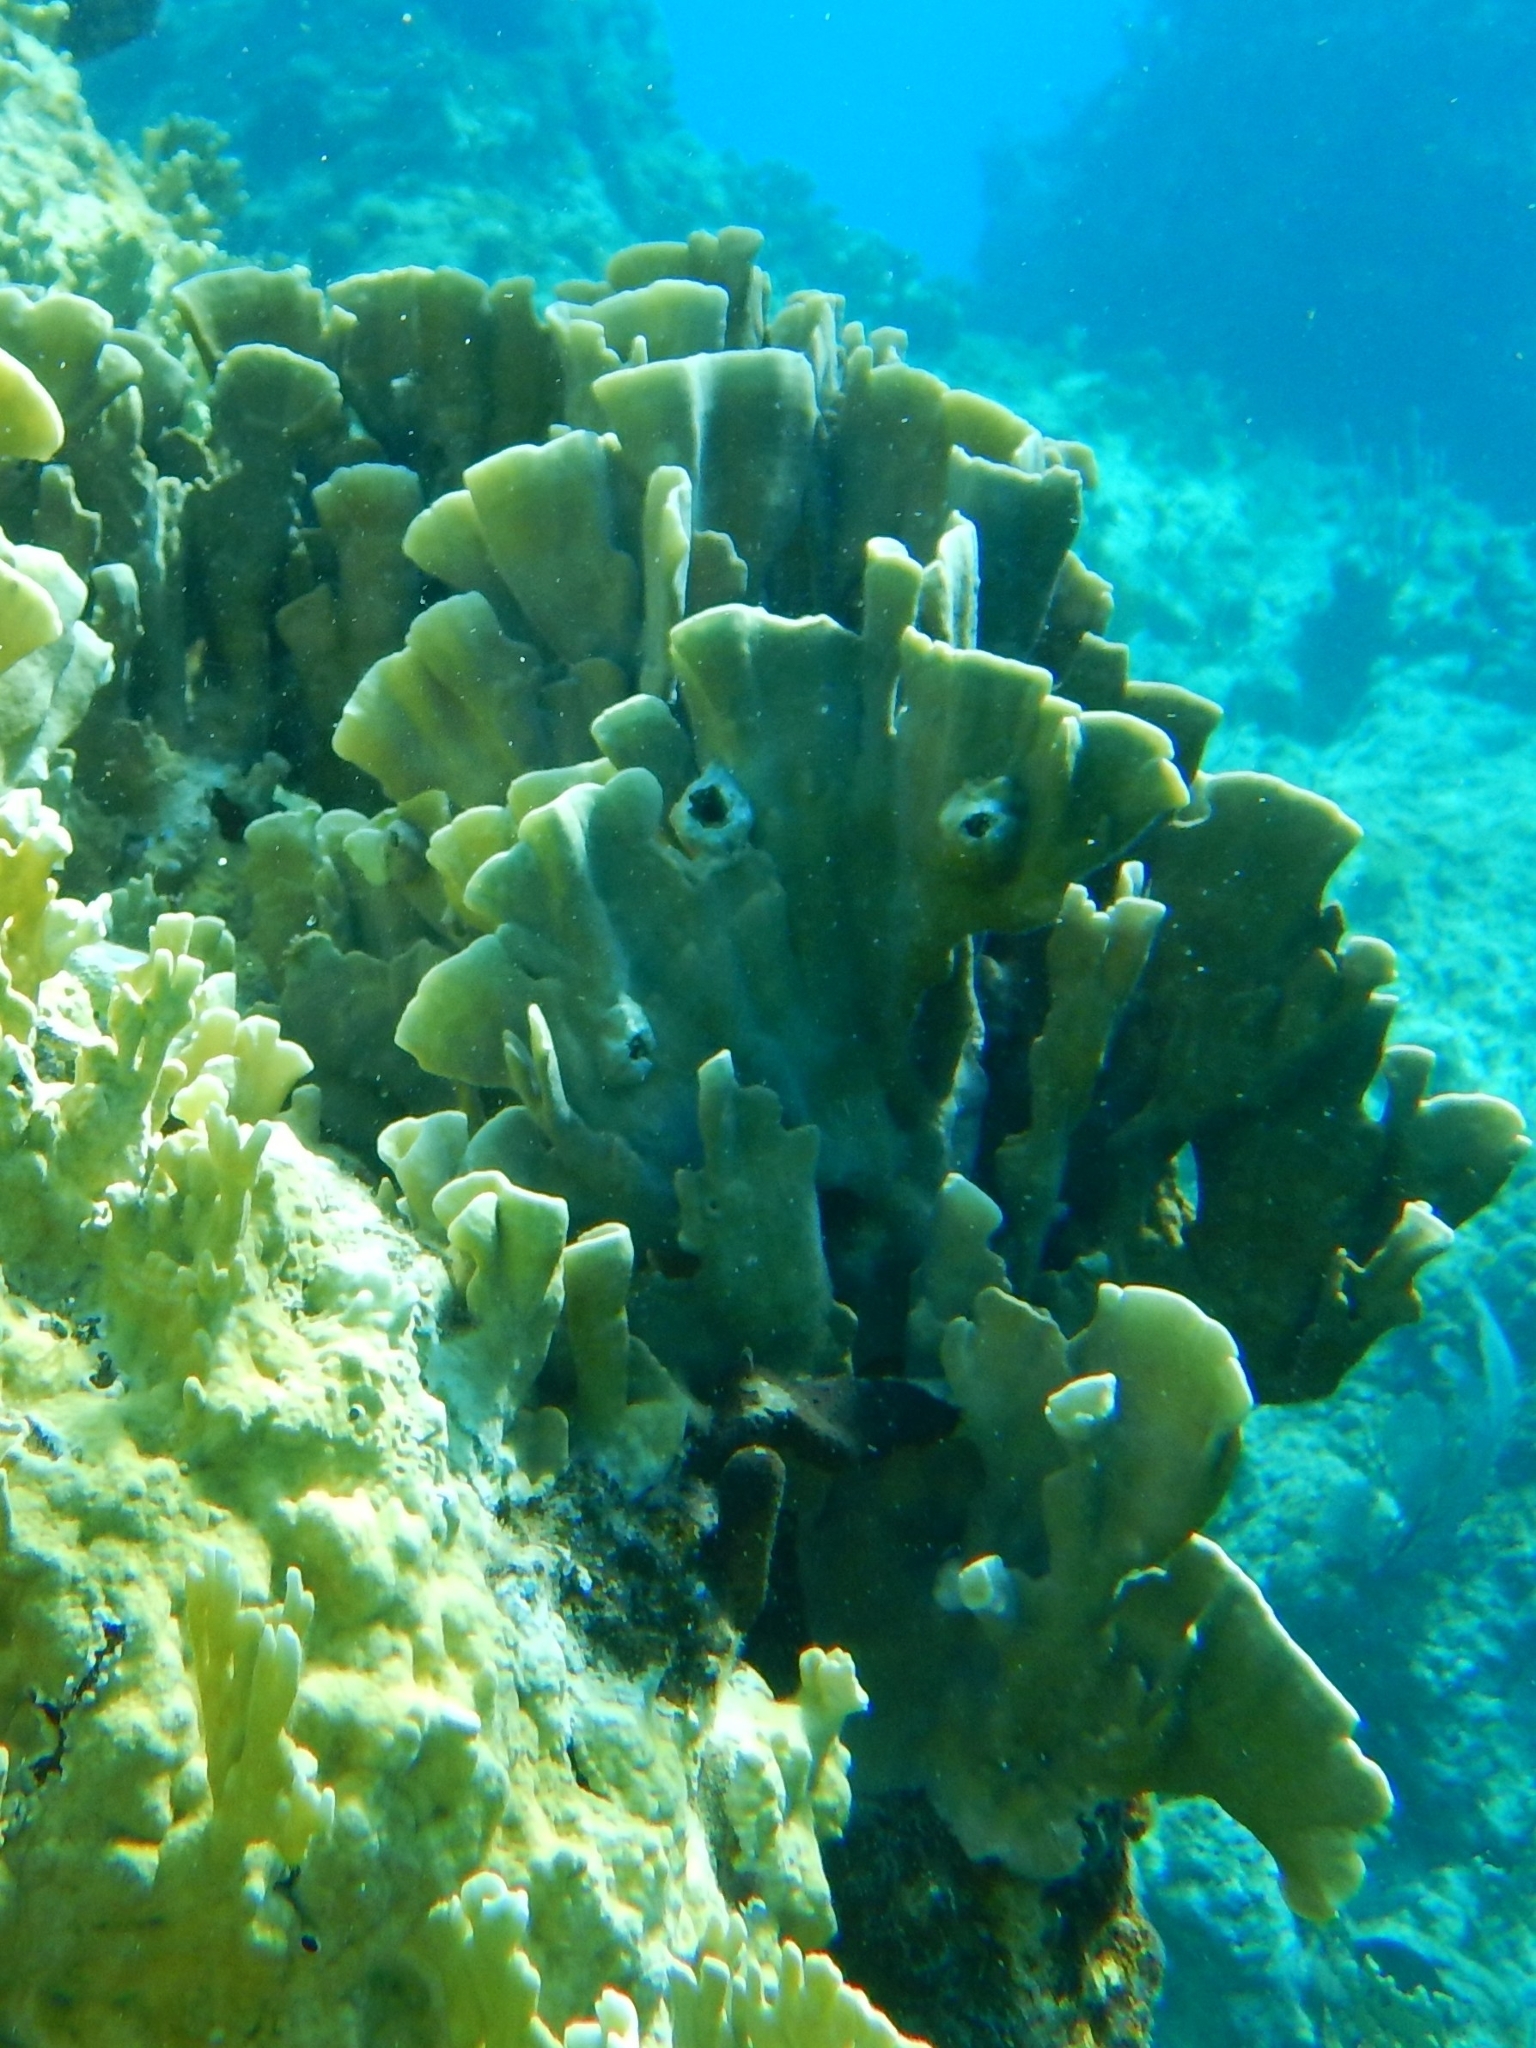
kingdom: Animalia
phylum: Cnidaria
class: Hydrozoa
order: Anthoathecata
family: Milleporidae
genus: Millepora
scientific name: Millepora complanata
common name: Bladed fire coral
